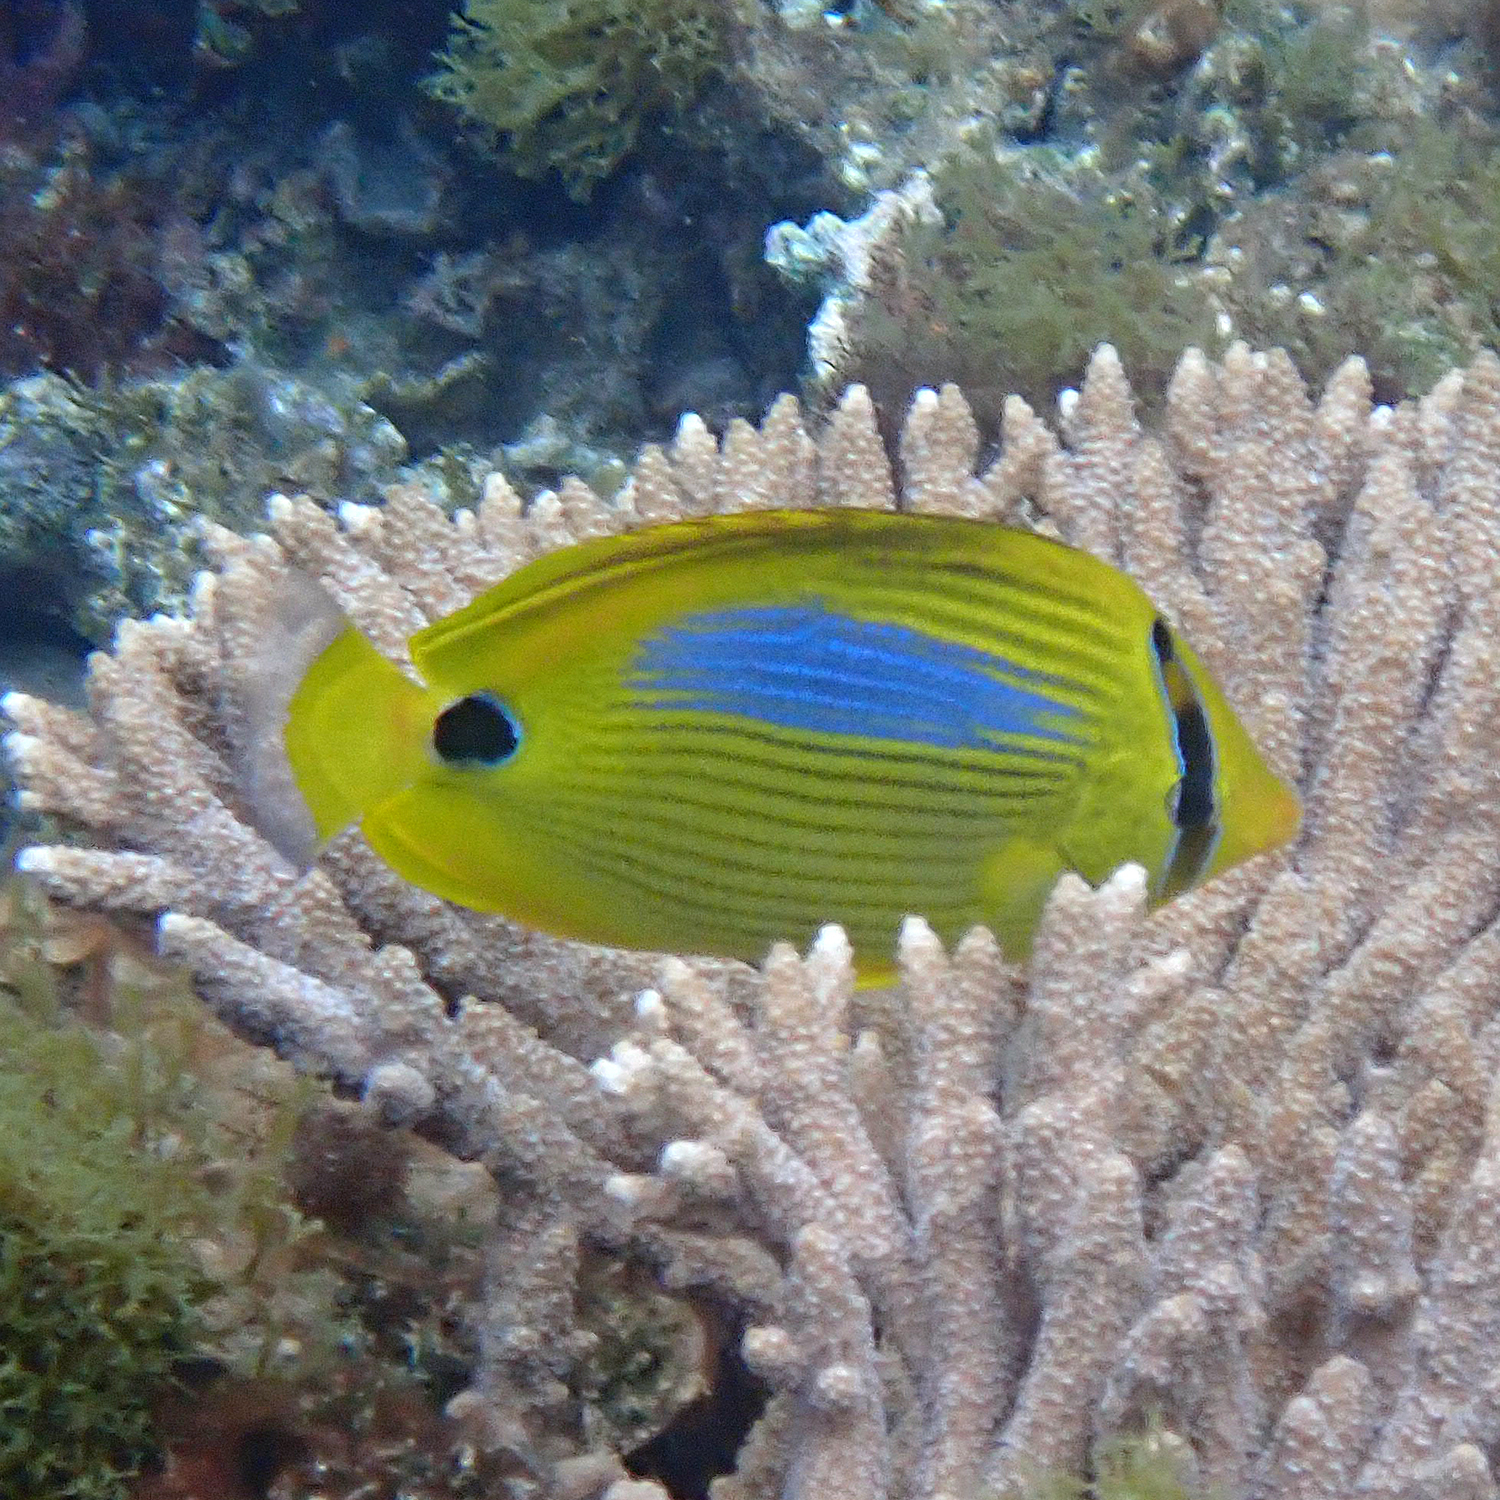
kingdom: Animalia
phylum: Chordata
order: Perciformes
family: Chaetodontidae
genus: Chaetodon
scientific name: Chaetodon plebeius
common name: Bluespot butterflyfish
